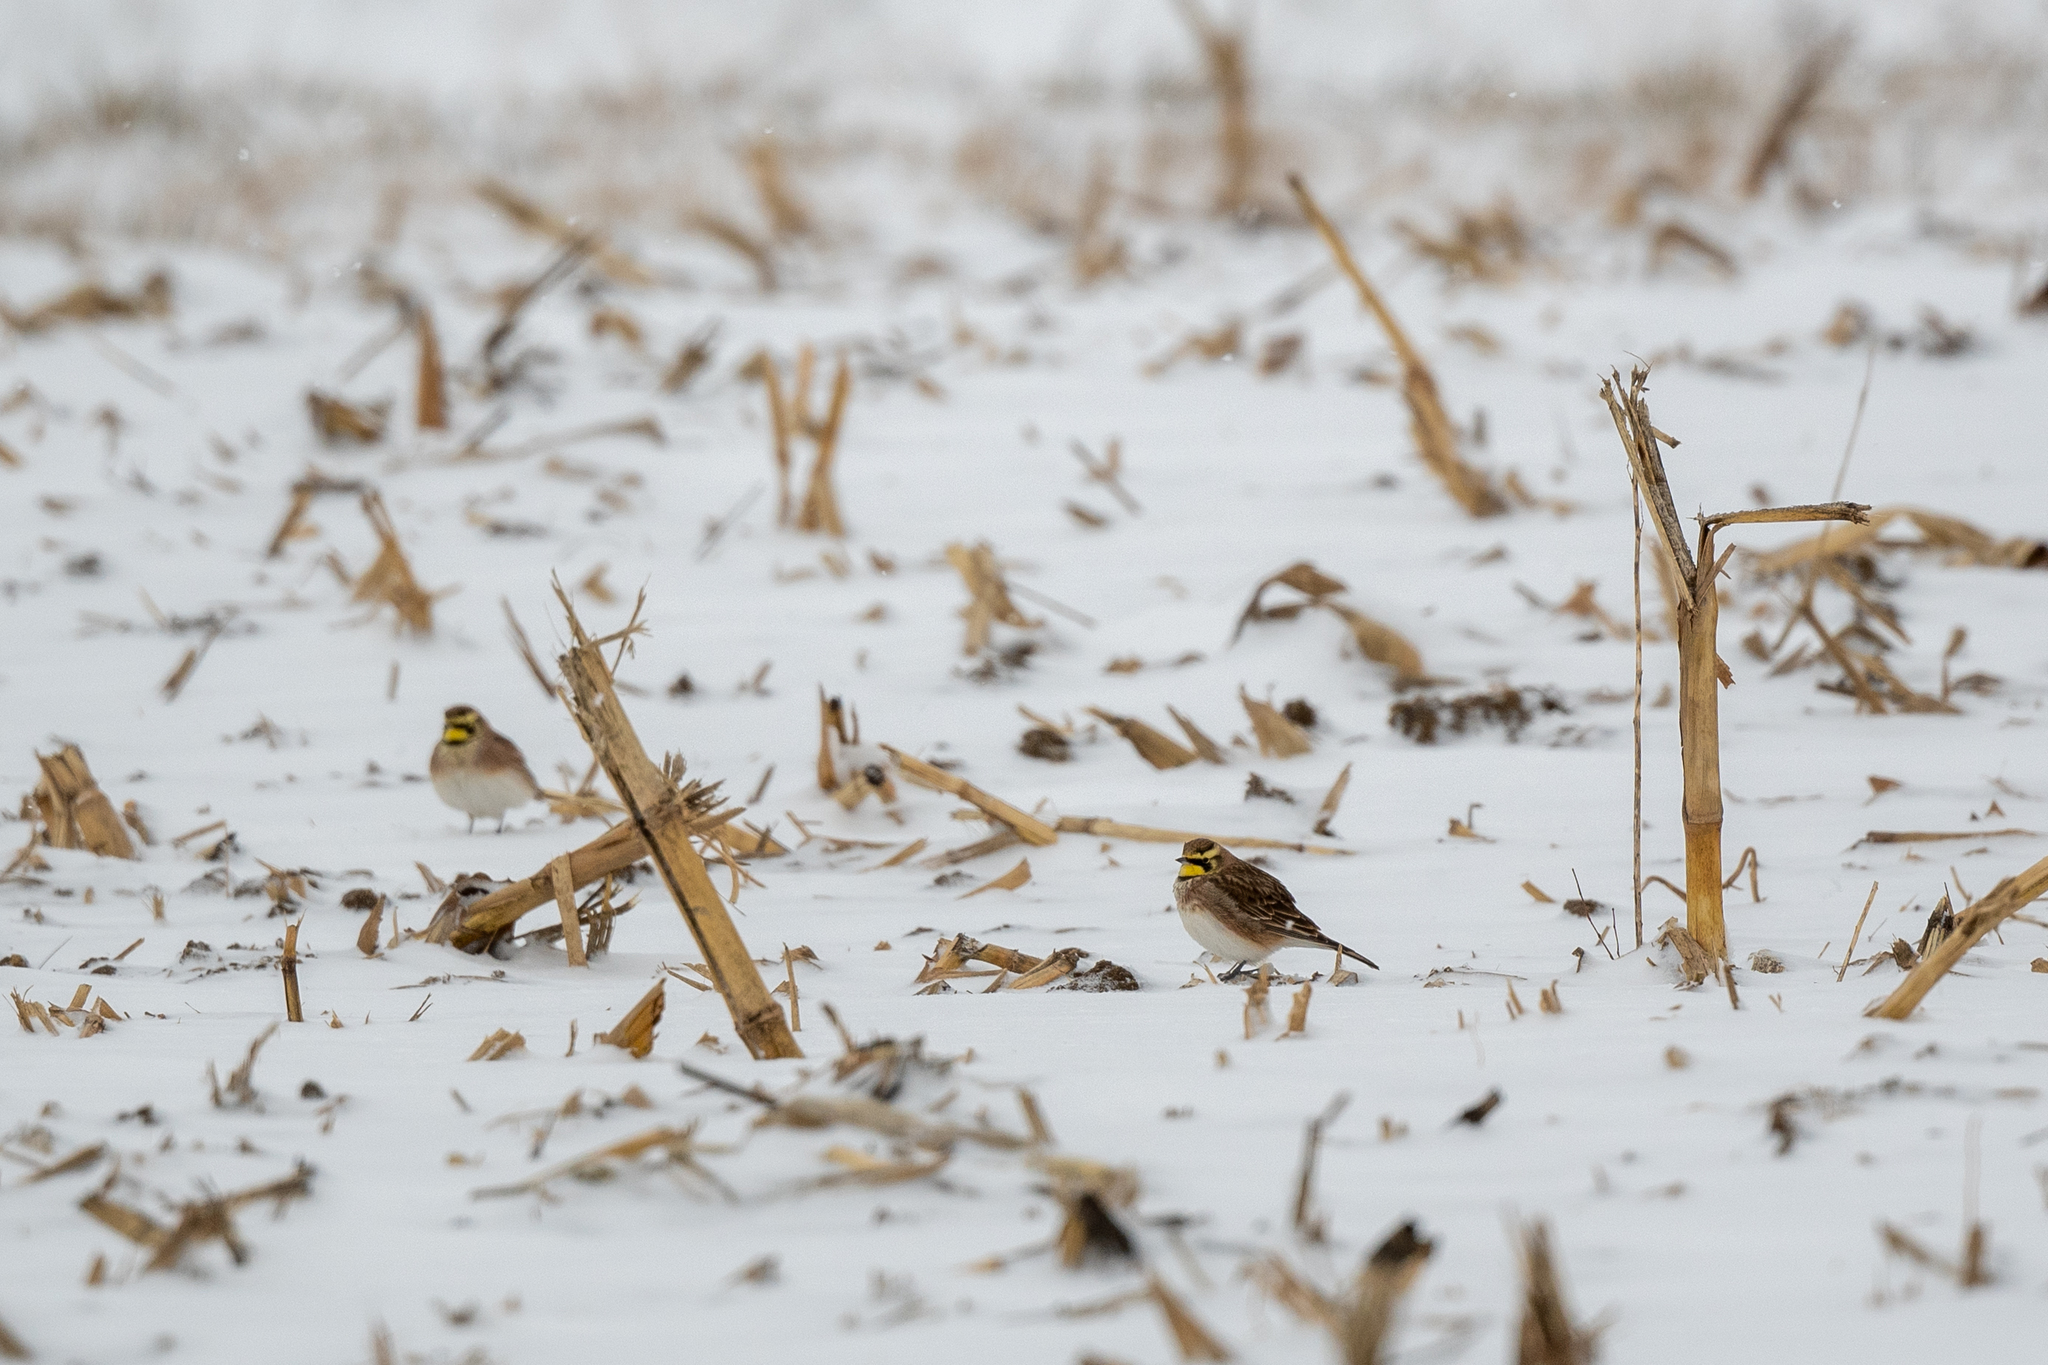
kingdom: Animalia
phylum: Chordata
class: Aves
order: Passeriformes
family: Alaudidae
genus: Eremophila
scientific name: Eremophila alpestris
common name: Horned lark
